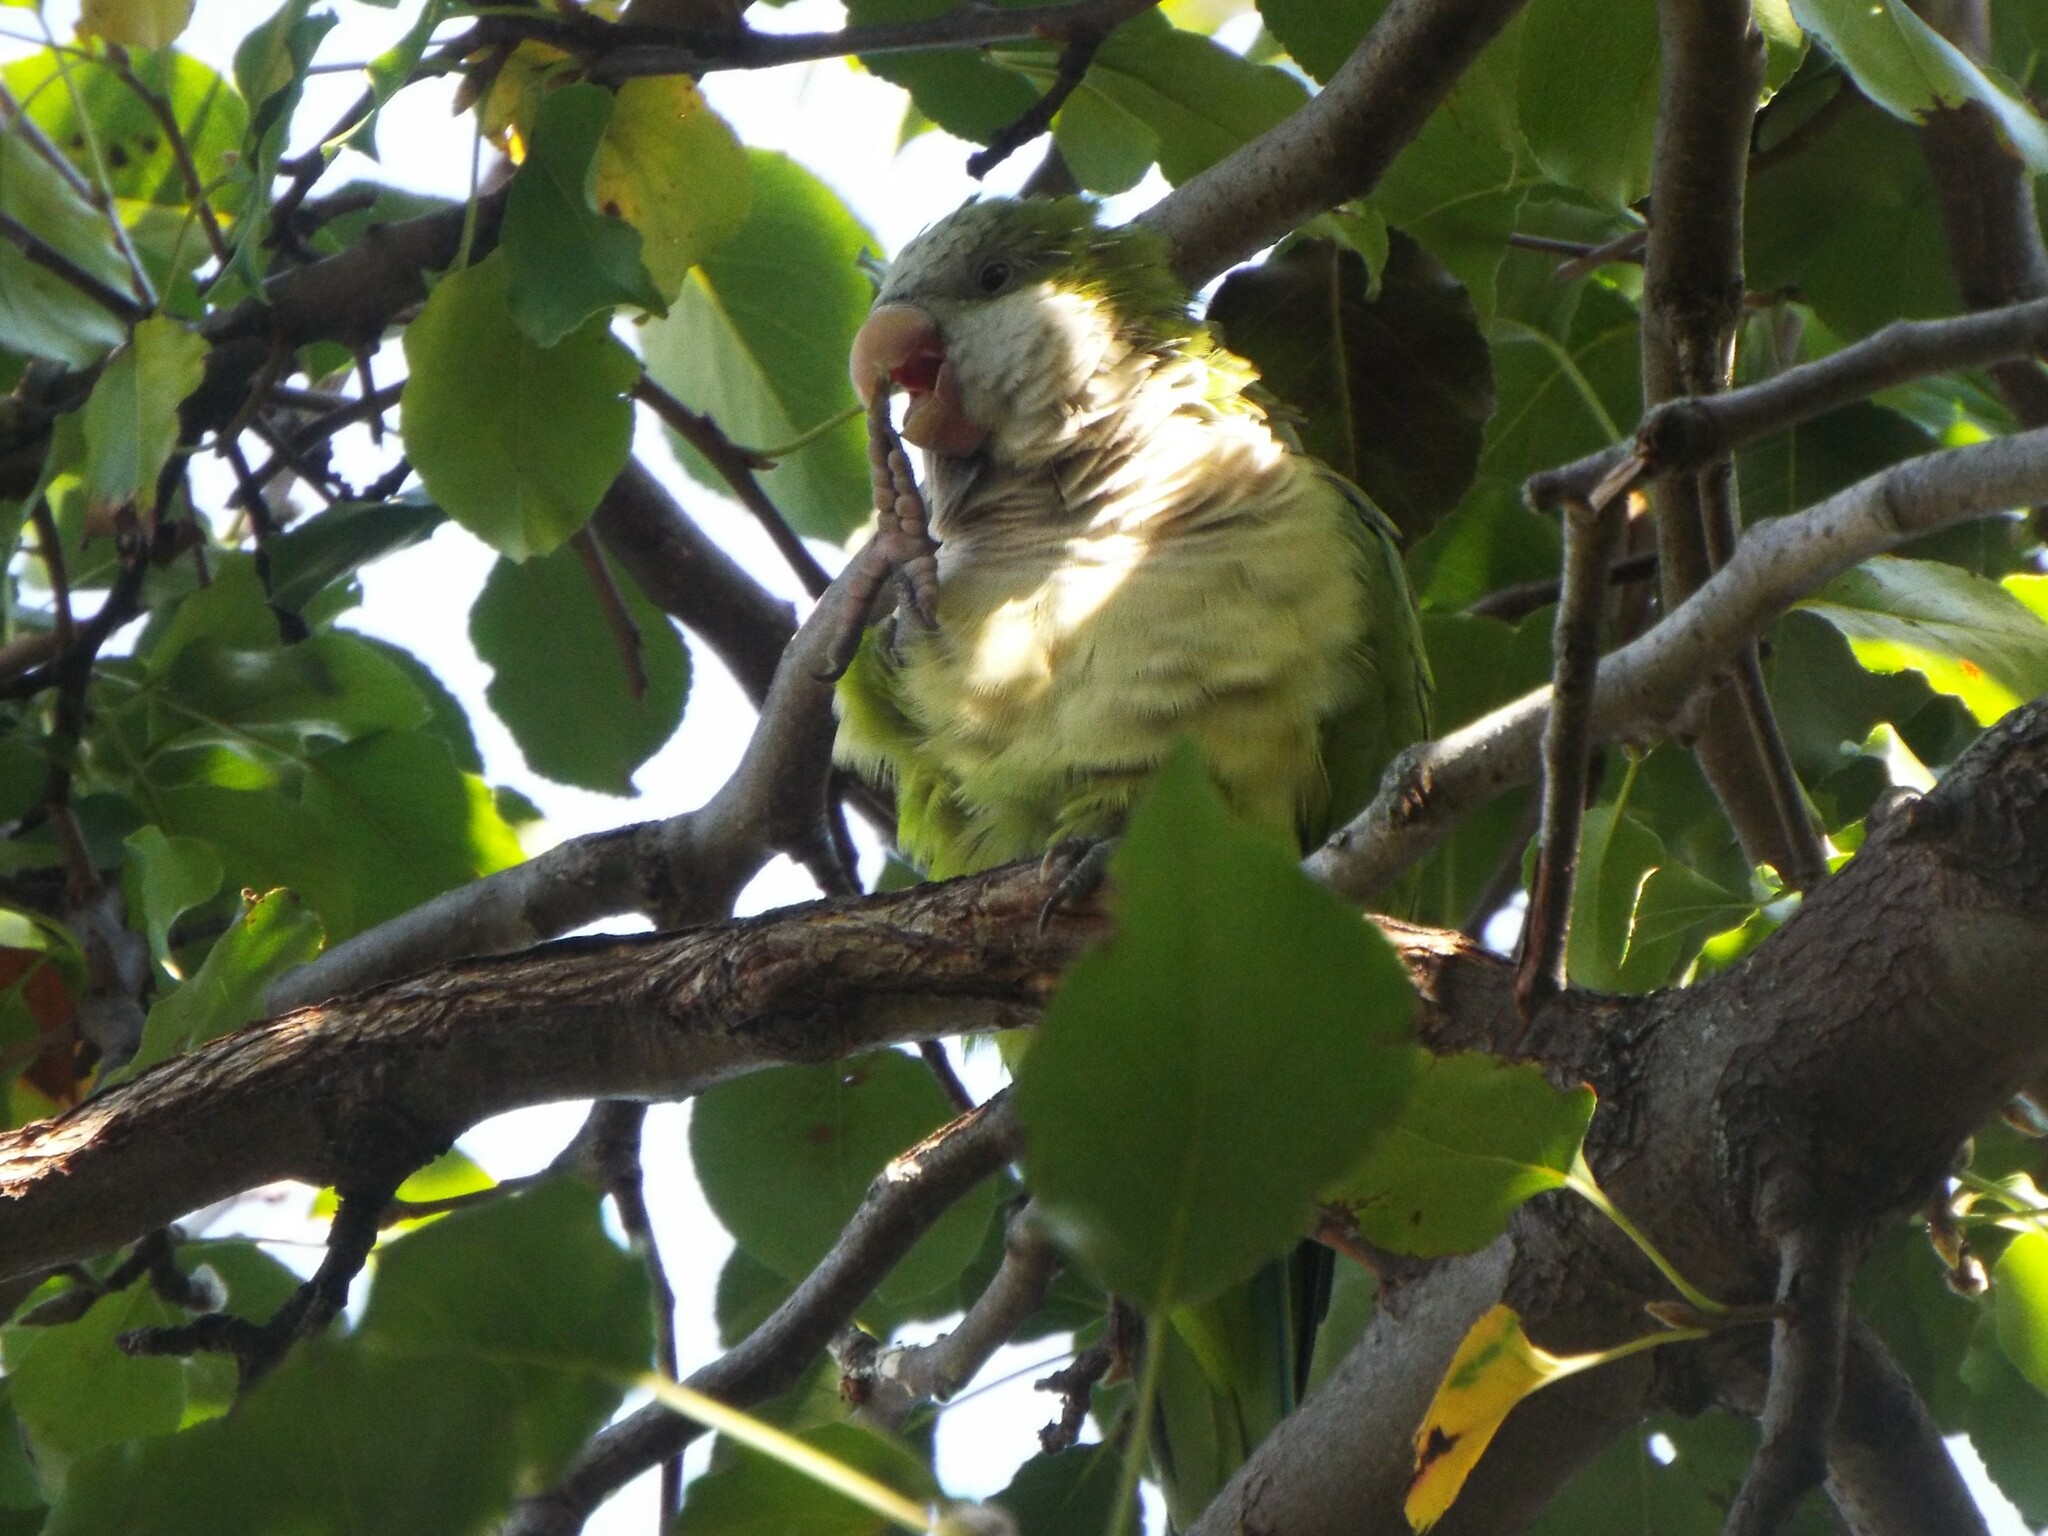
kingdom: Animalia
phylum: Chordata
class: Aves
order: Psittaciformes
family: Psittacidae
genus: Myiopsitta
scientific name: Myiopsitta monachus
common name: Monk parakeet
